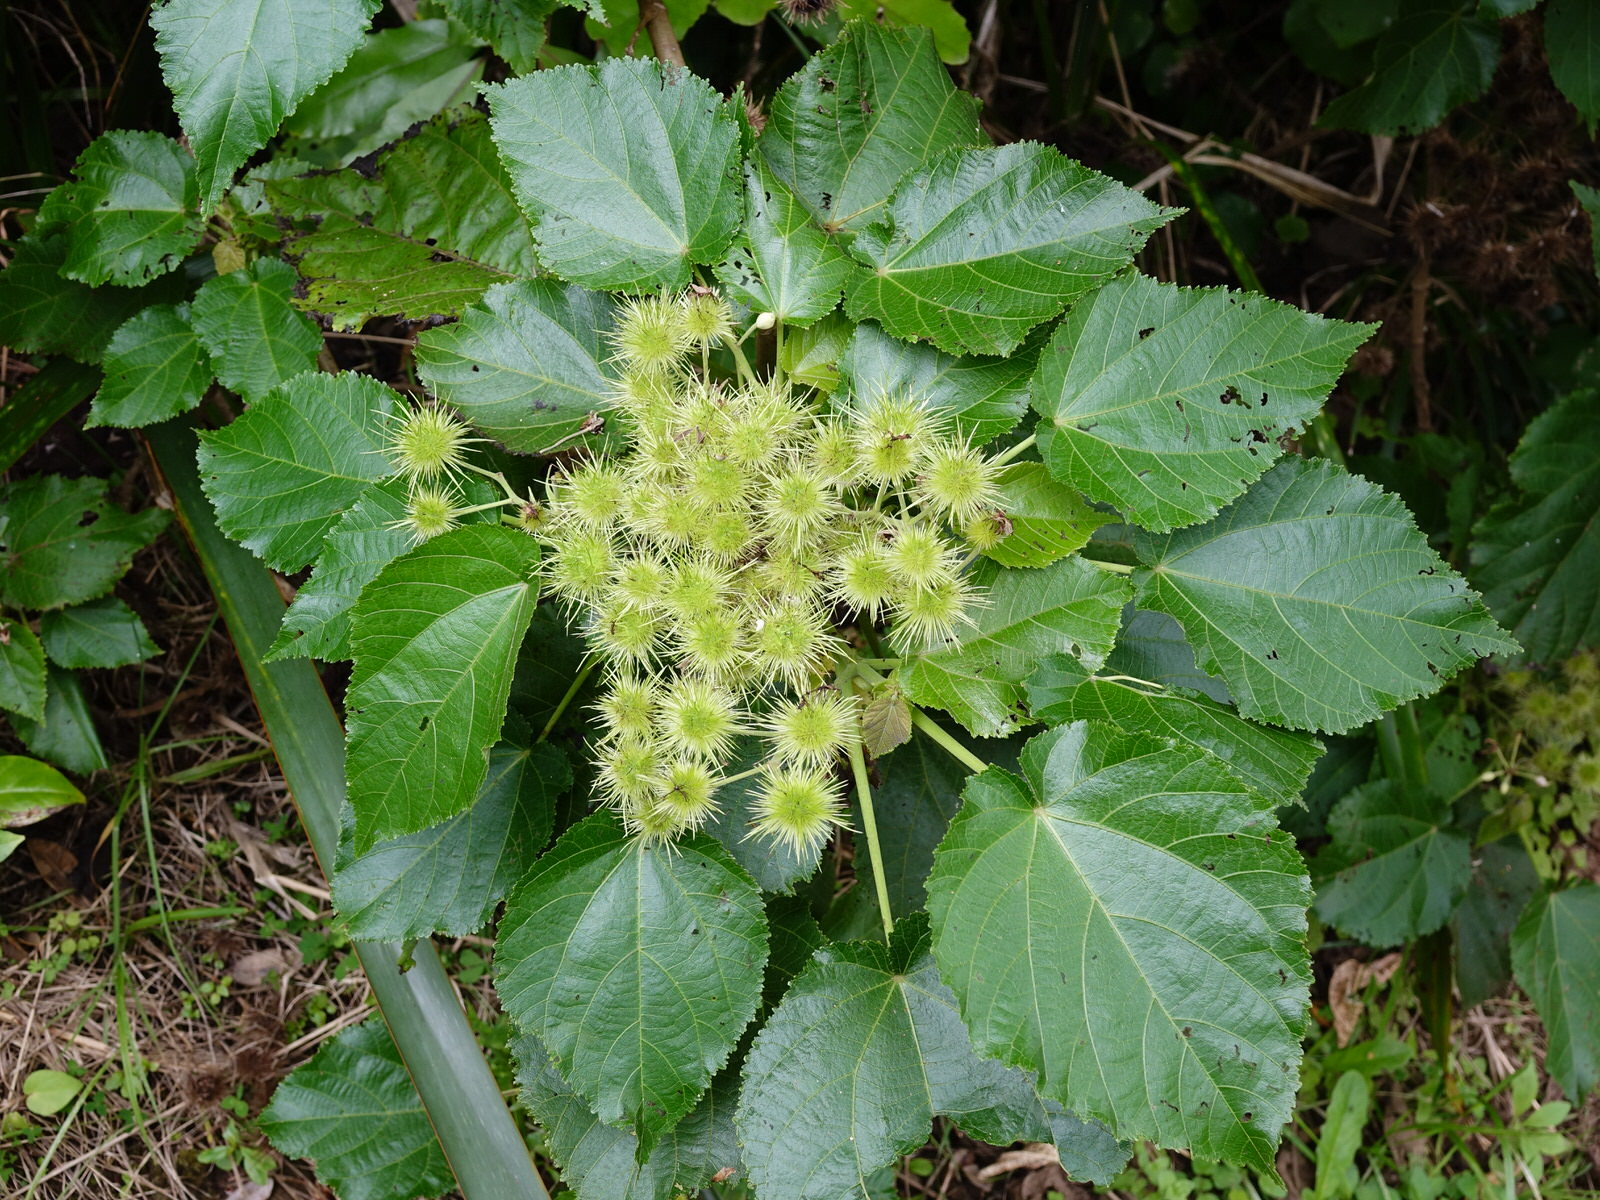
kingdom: Plantae
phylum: Tracheophyta
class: Magnoliopsida
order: Malvales
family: Malvaceae
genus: Entelea
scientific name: Entelea arborescens
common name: New zealand-mulberry
